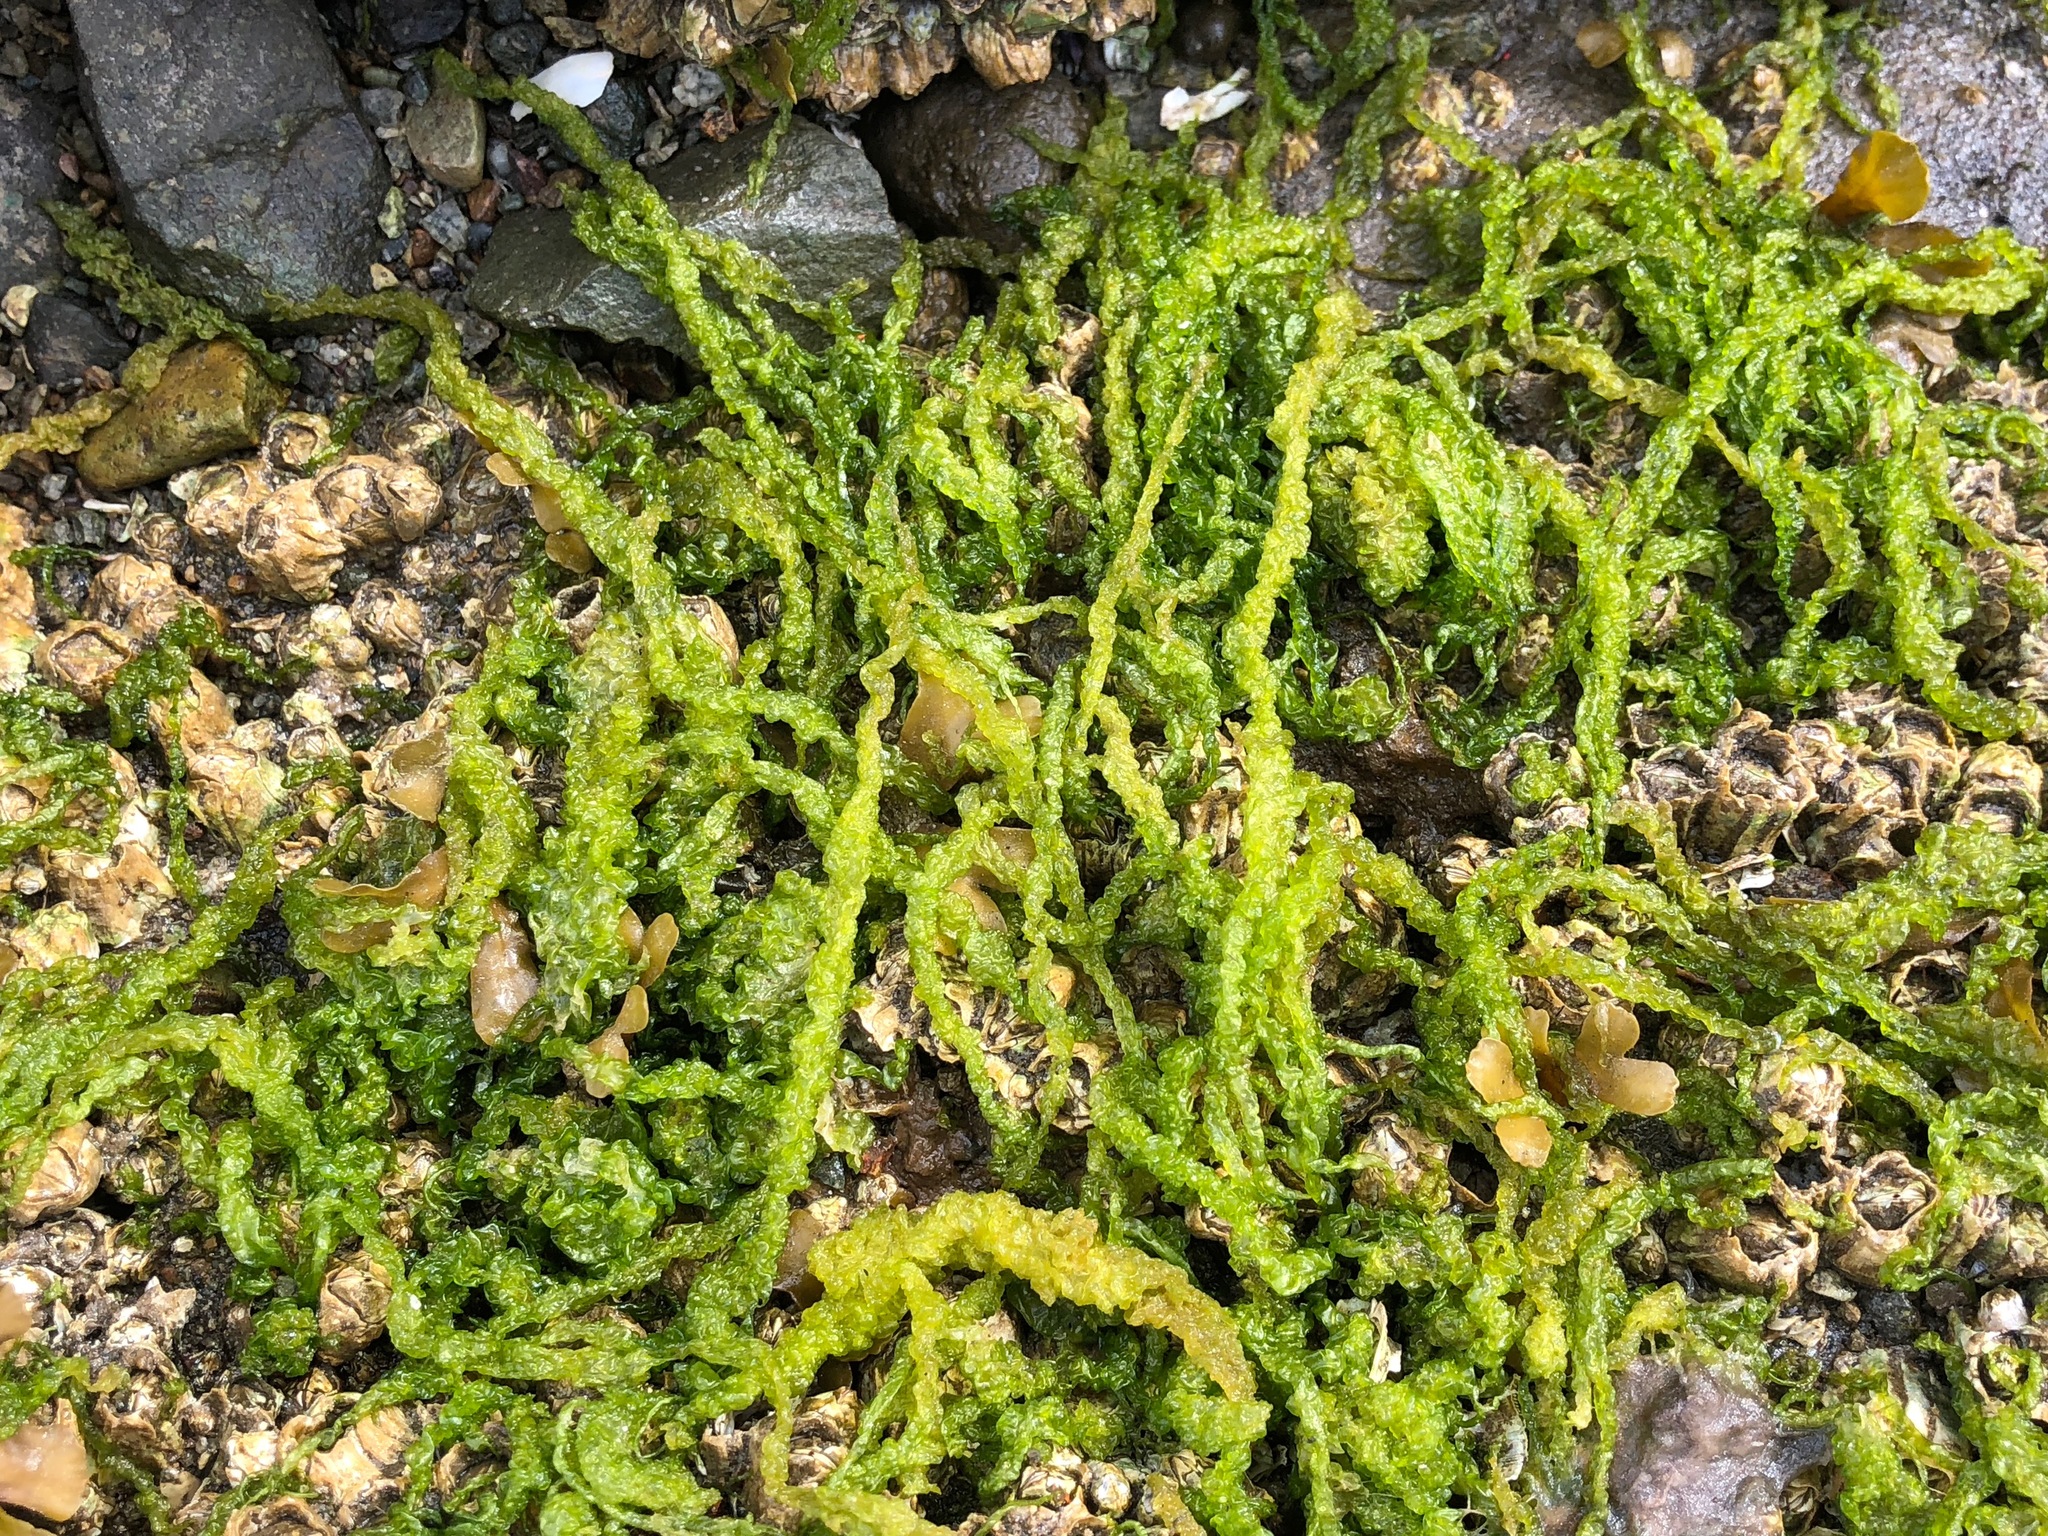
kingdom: Plantae
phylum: Chlorophyta
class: Ulvophyceae
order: Ulvales
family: Ulvaceae
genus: Ulva
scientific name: Ulva intestinalis
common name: Gut weed
